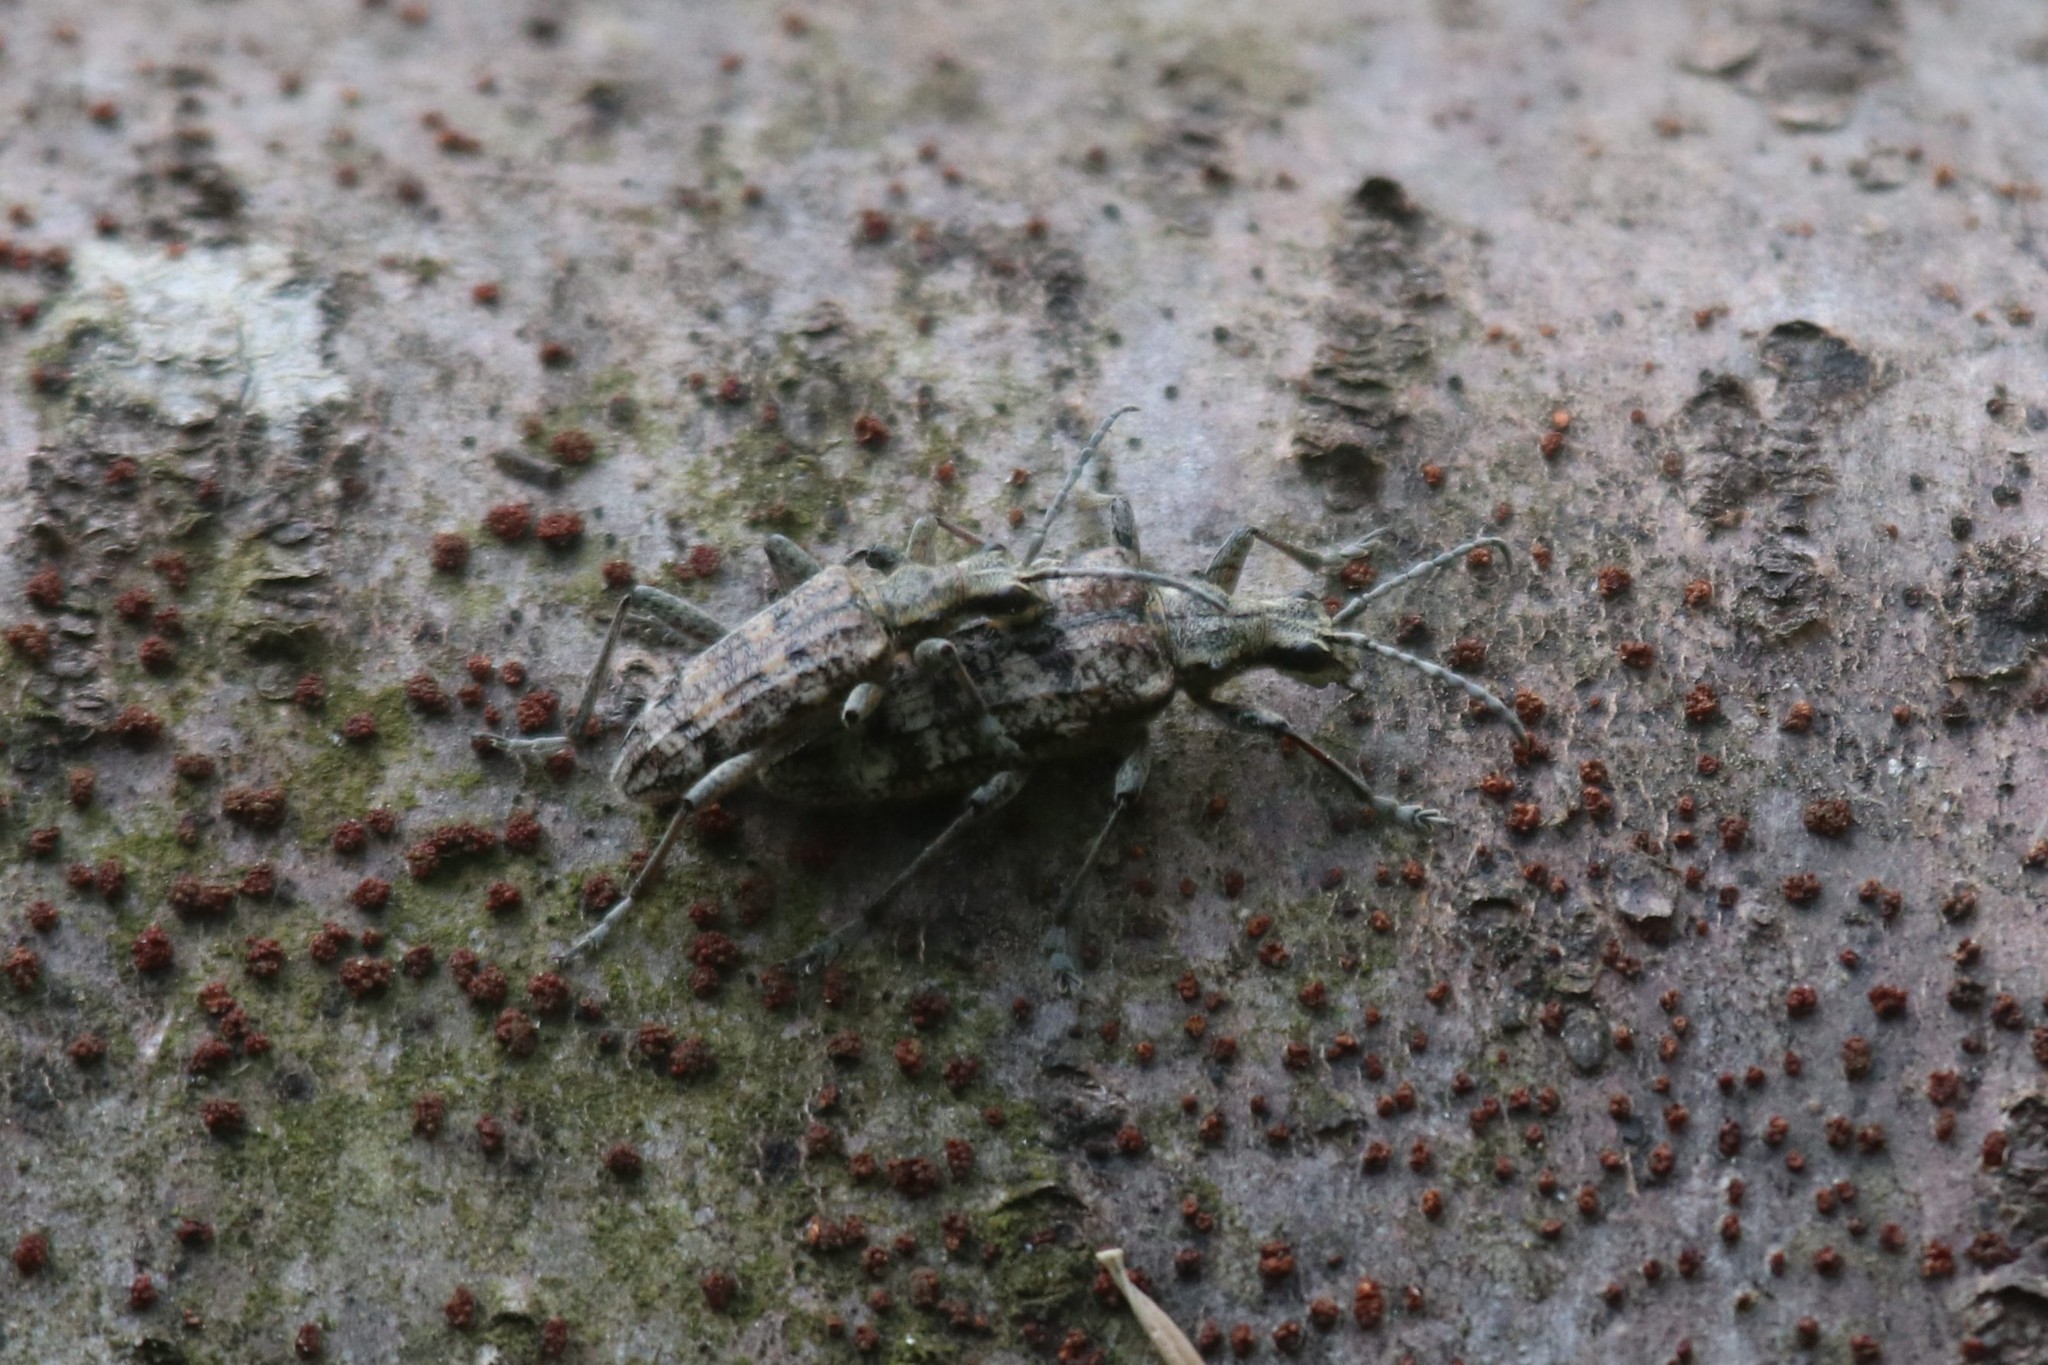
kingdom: Animalia
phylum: Arthropoda
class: Insecta
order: Coleoptera
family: Cerambycidae
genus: Rhagium
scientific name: Rhagium inquisitor
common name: Ribbed pine borer
